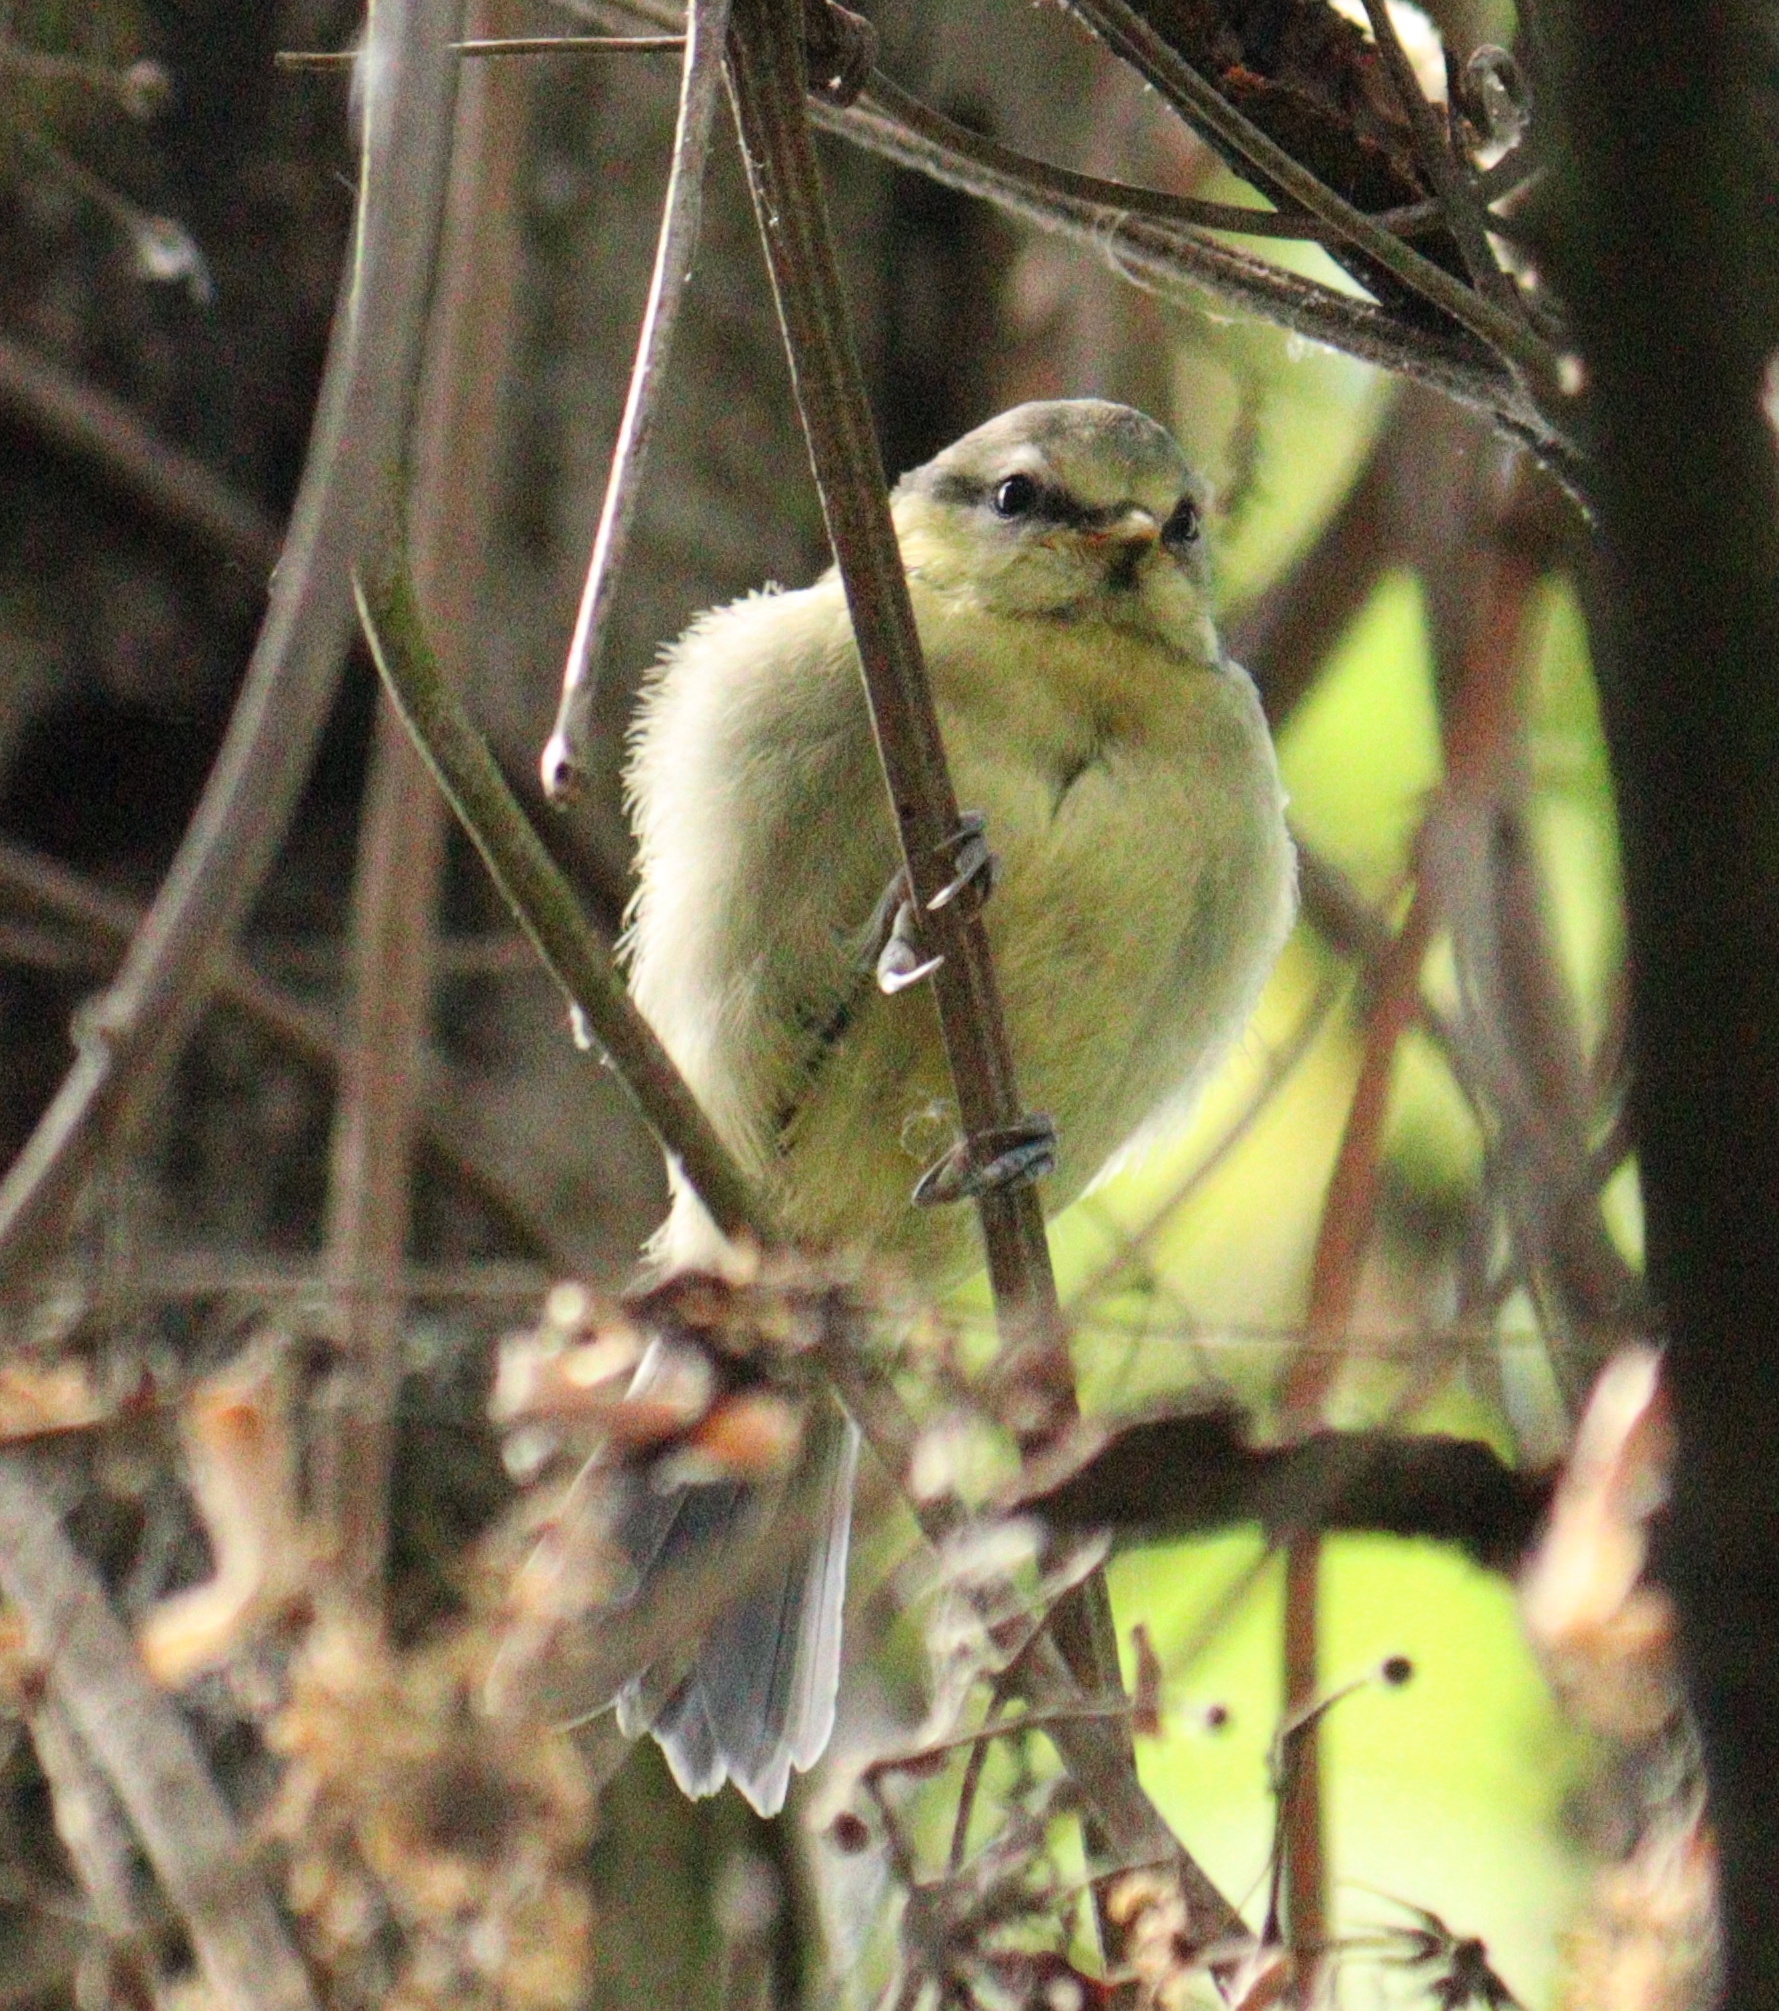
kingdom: Animalia
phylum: Chordata
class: Aves
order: Passeriformes
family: Paridae
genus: Cyanistes
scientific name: Cyanistes caeruleus
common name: Eurasian blue tit
